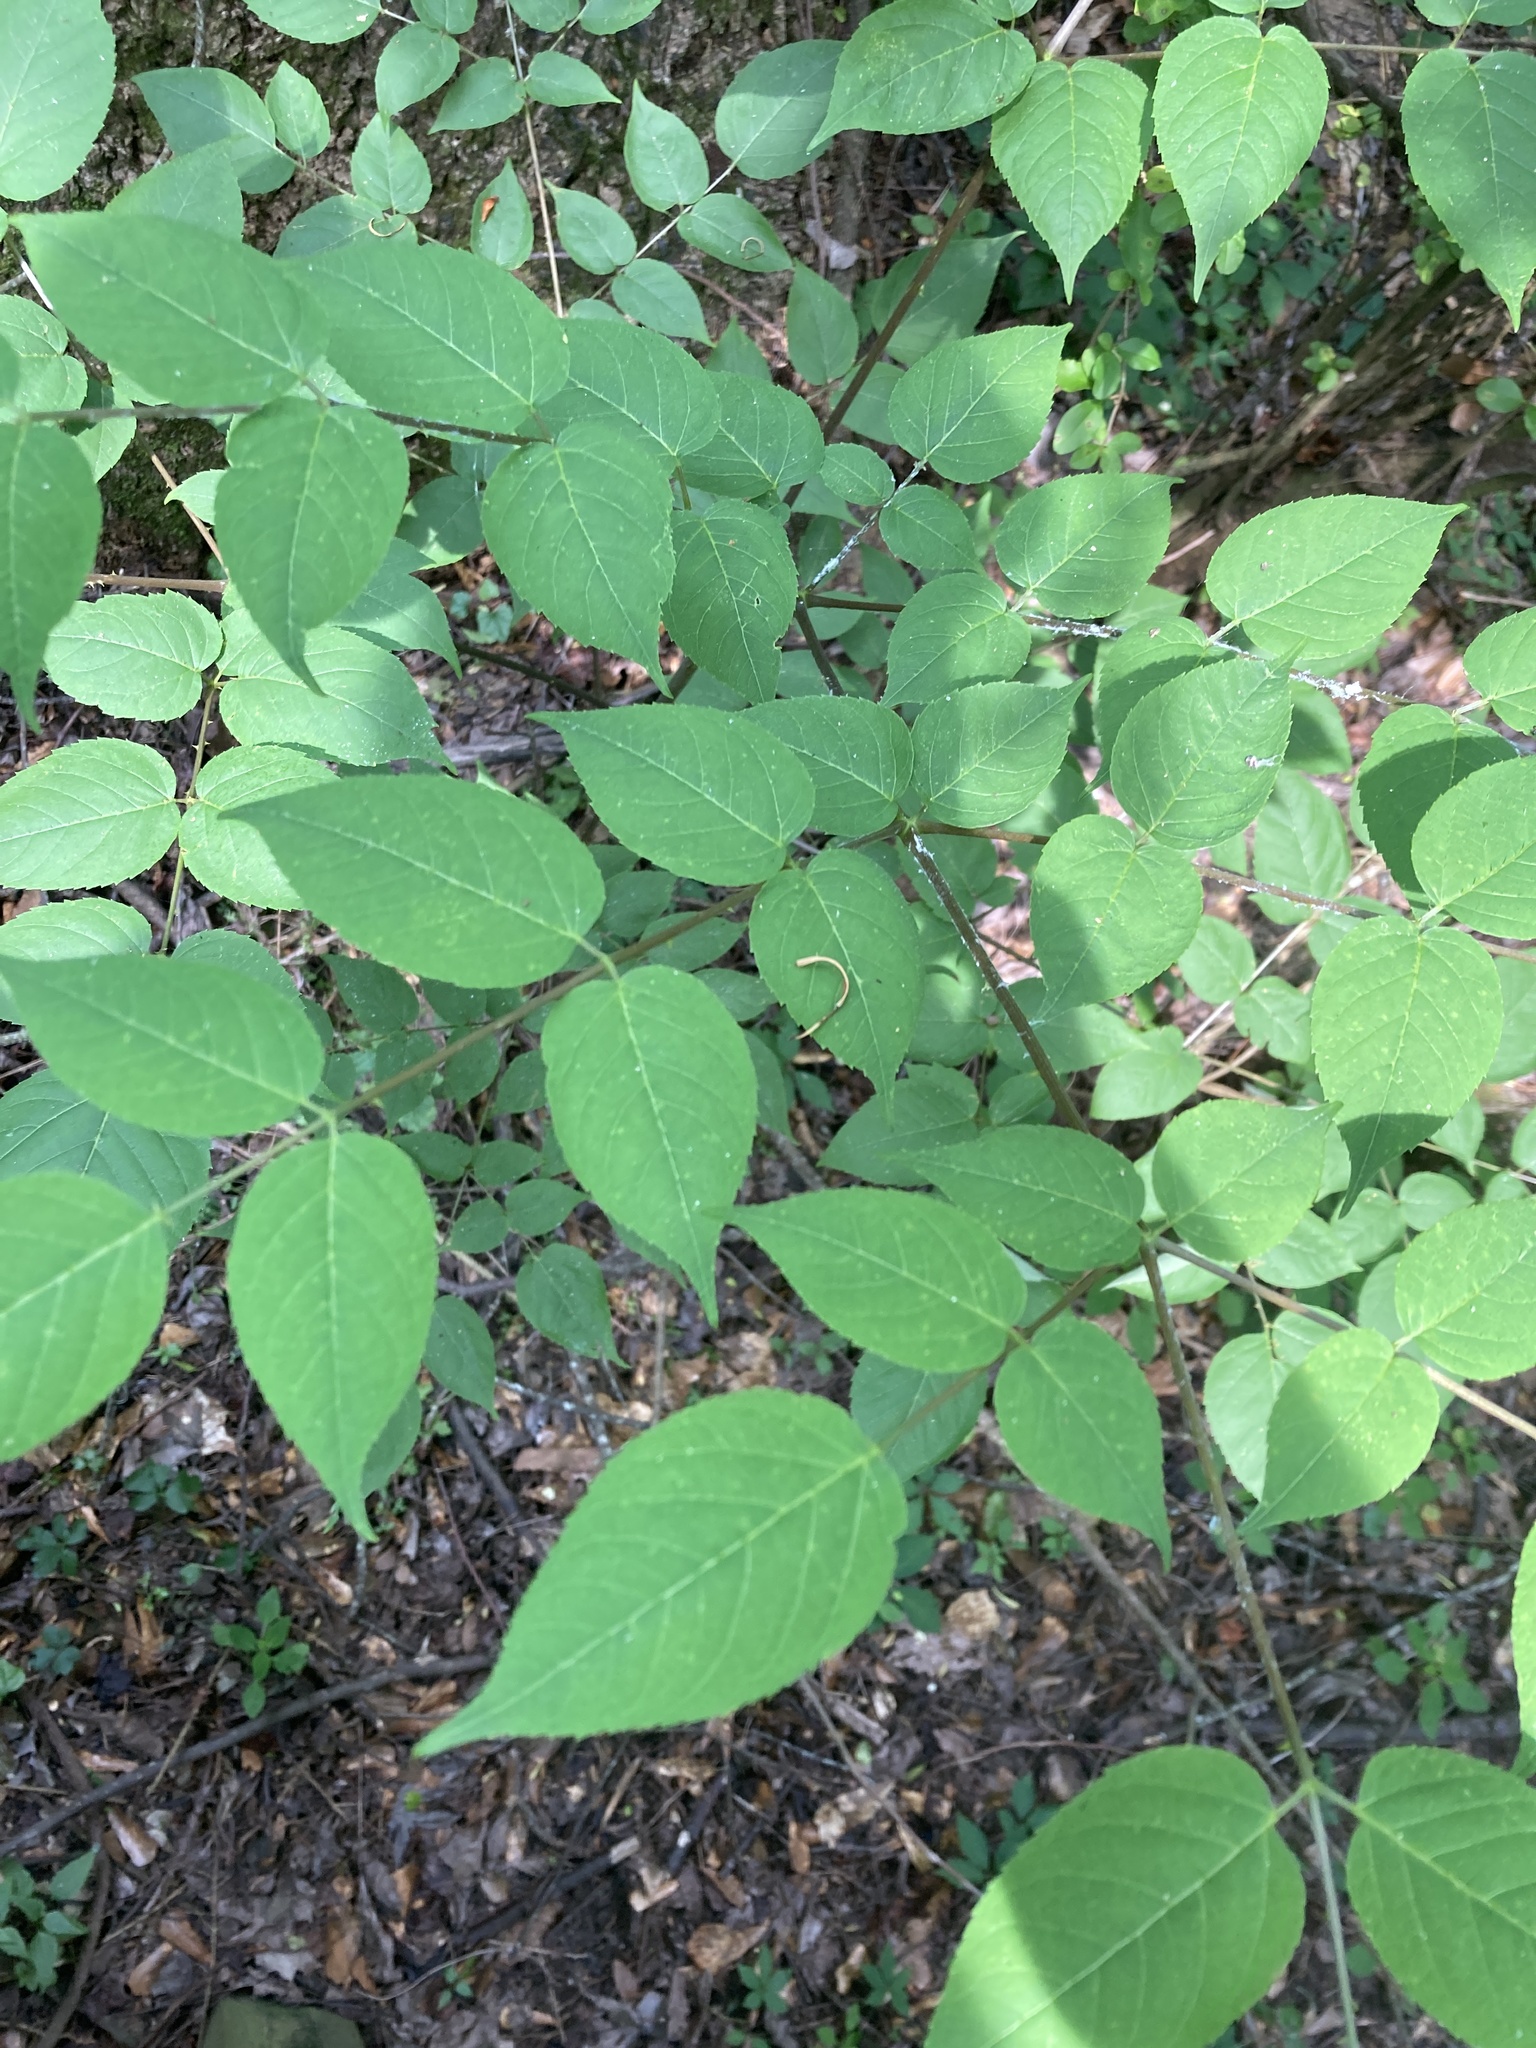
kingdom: Plantae
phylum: Tracheophyta
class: Magnoliopsida
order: Apiales
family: Araliaceae
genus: Aralia
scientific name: Aralia spinosa
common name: Hercules'-club
